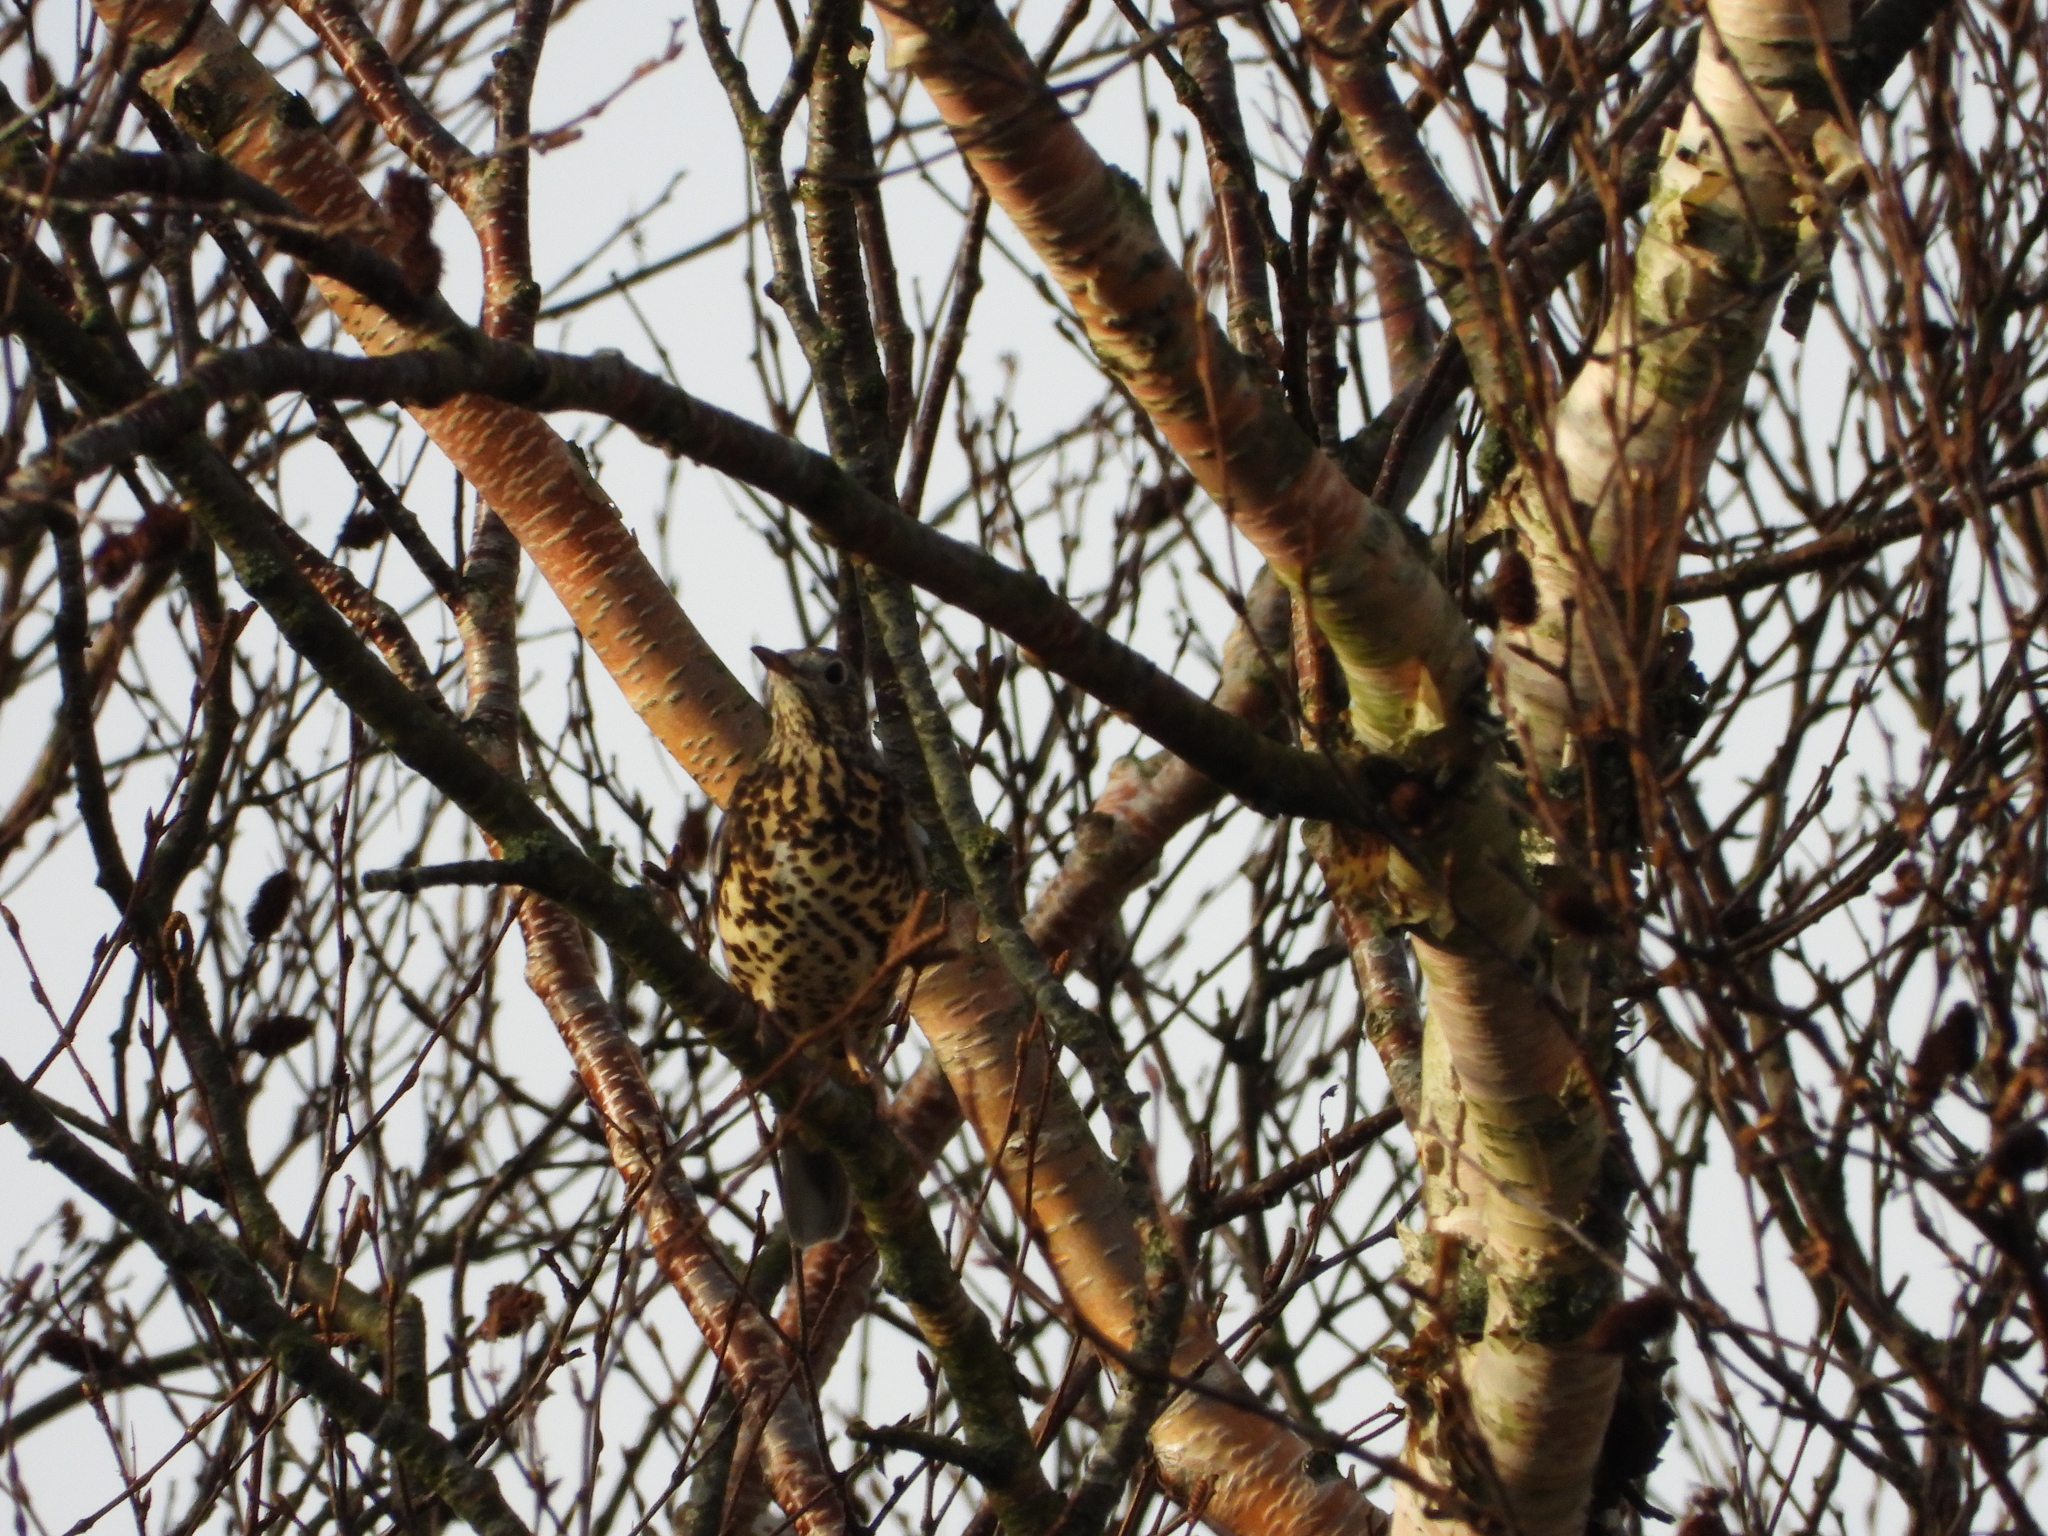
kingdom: Animalia
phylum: Chordata
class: Aves
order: Passeriformes
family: Turdidae
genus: Turdus
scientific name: Turdus viscivorus
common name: Mistle thrush
